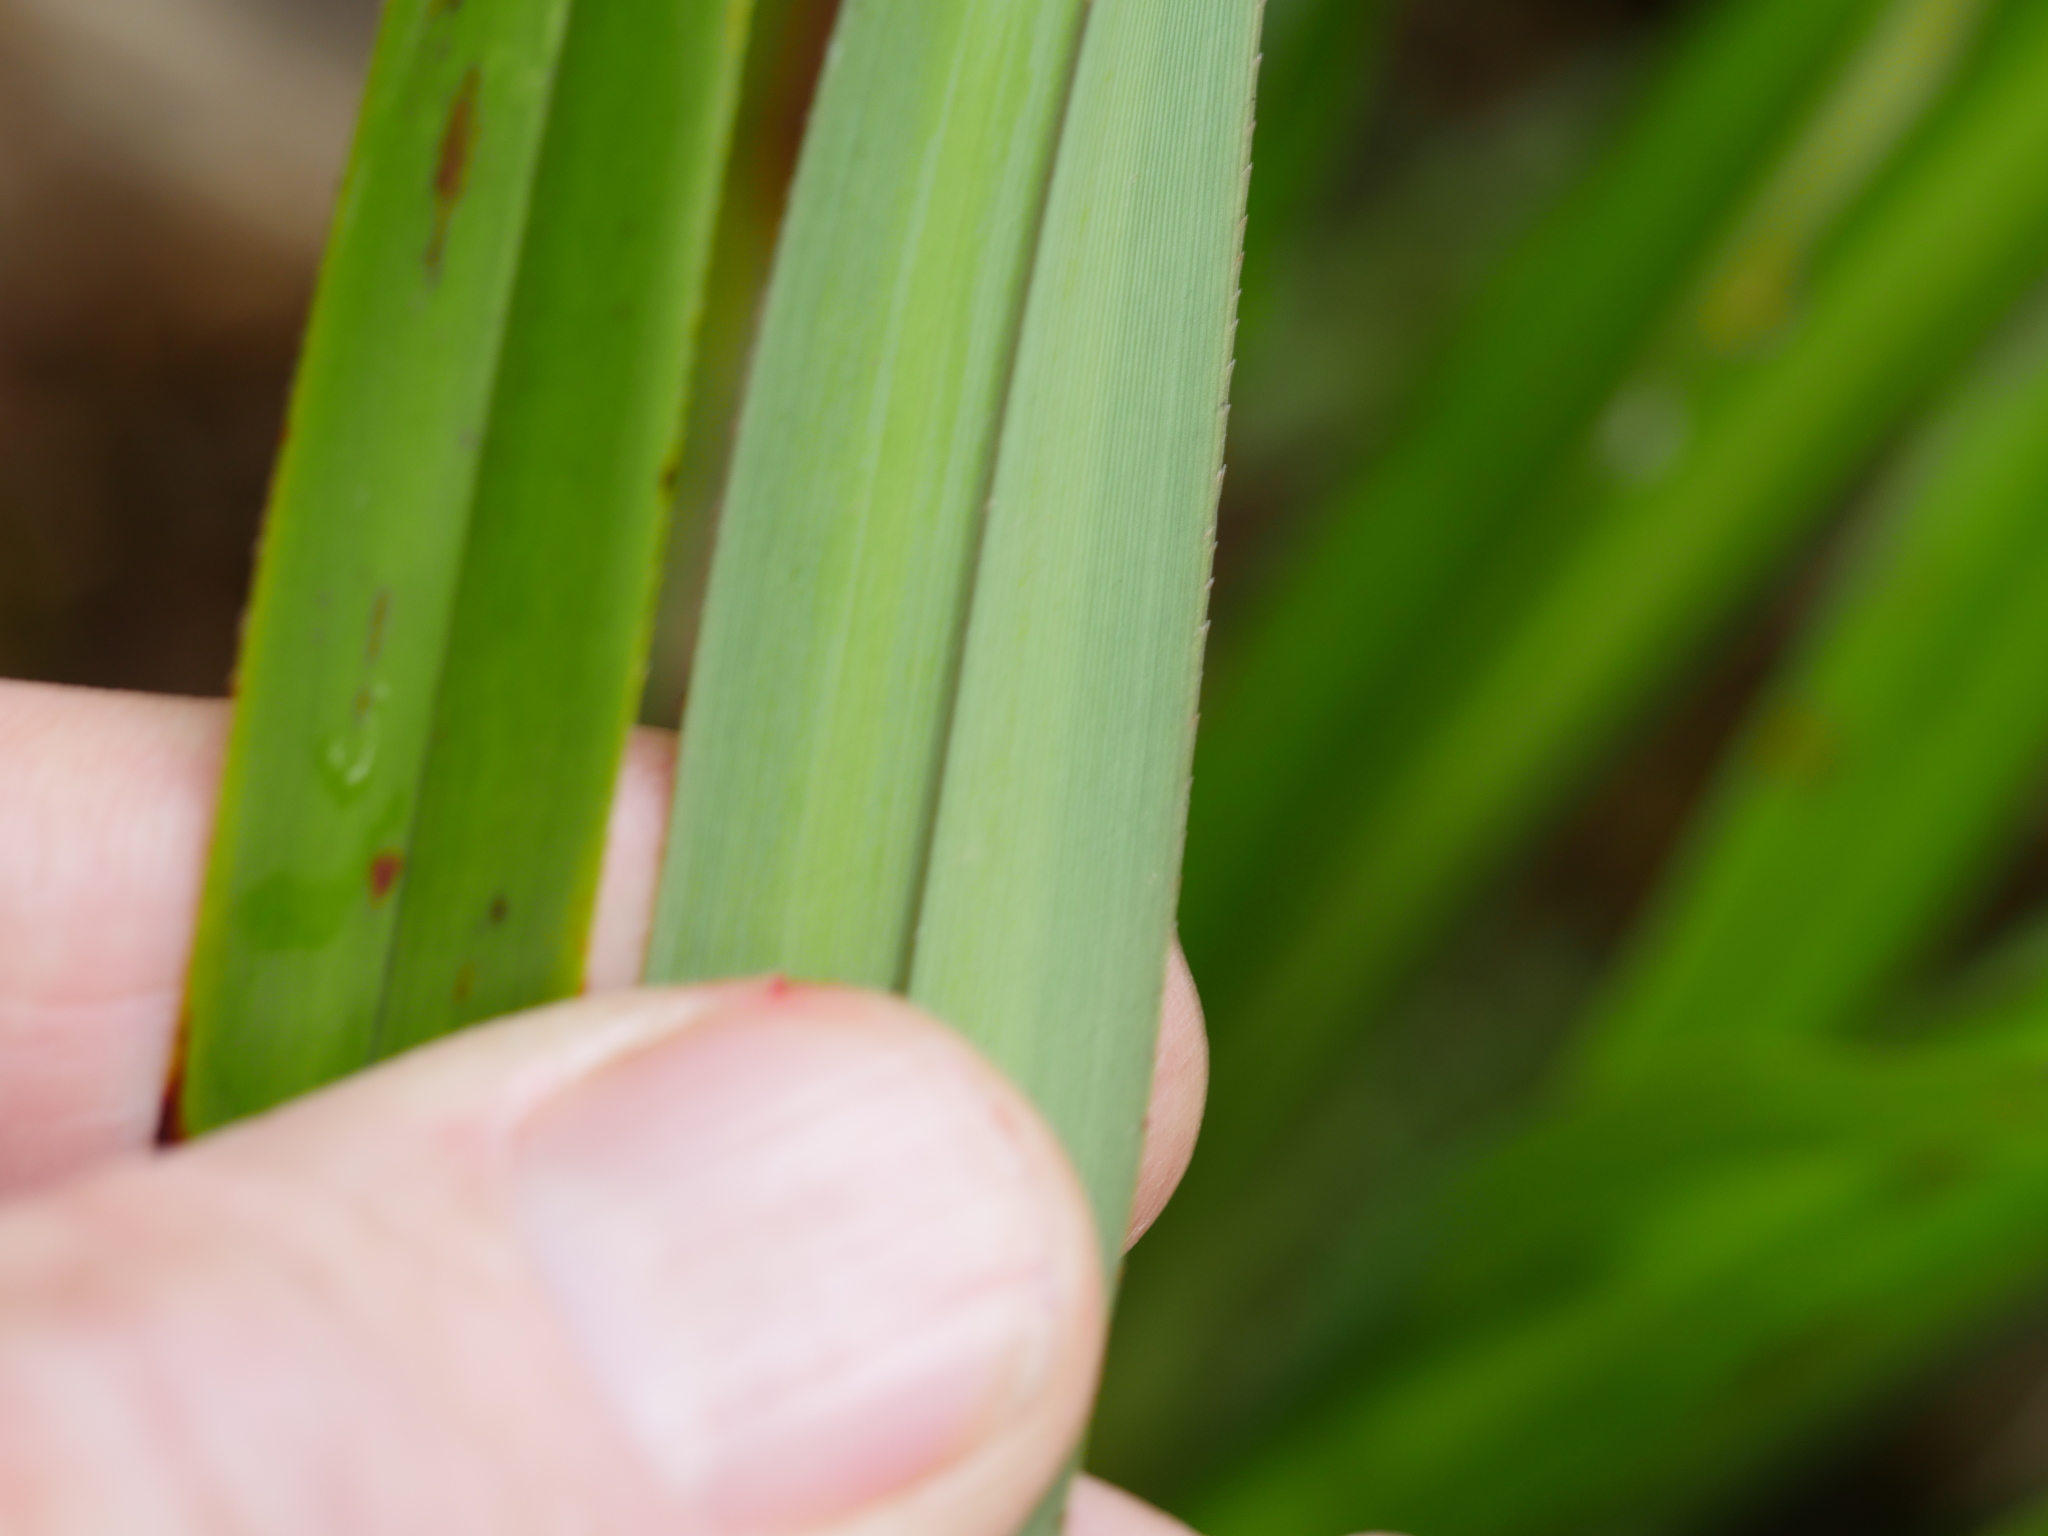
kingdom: Plantae
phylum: Tracheophyta
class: Liliopsida
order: Asparagales
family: Asphodelaceae
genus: Dianella
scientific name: Dianella nigra
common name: New zealand-blueberry
